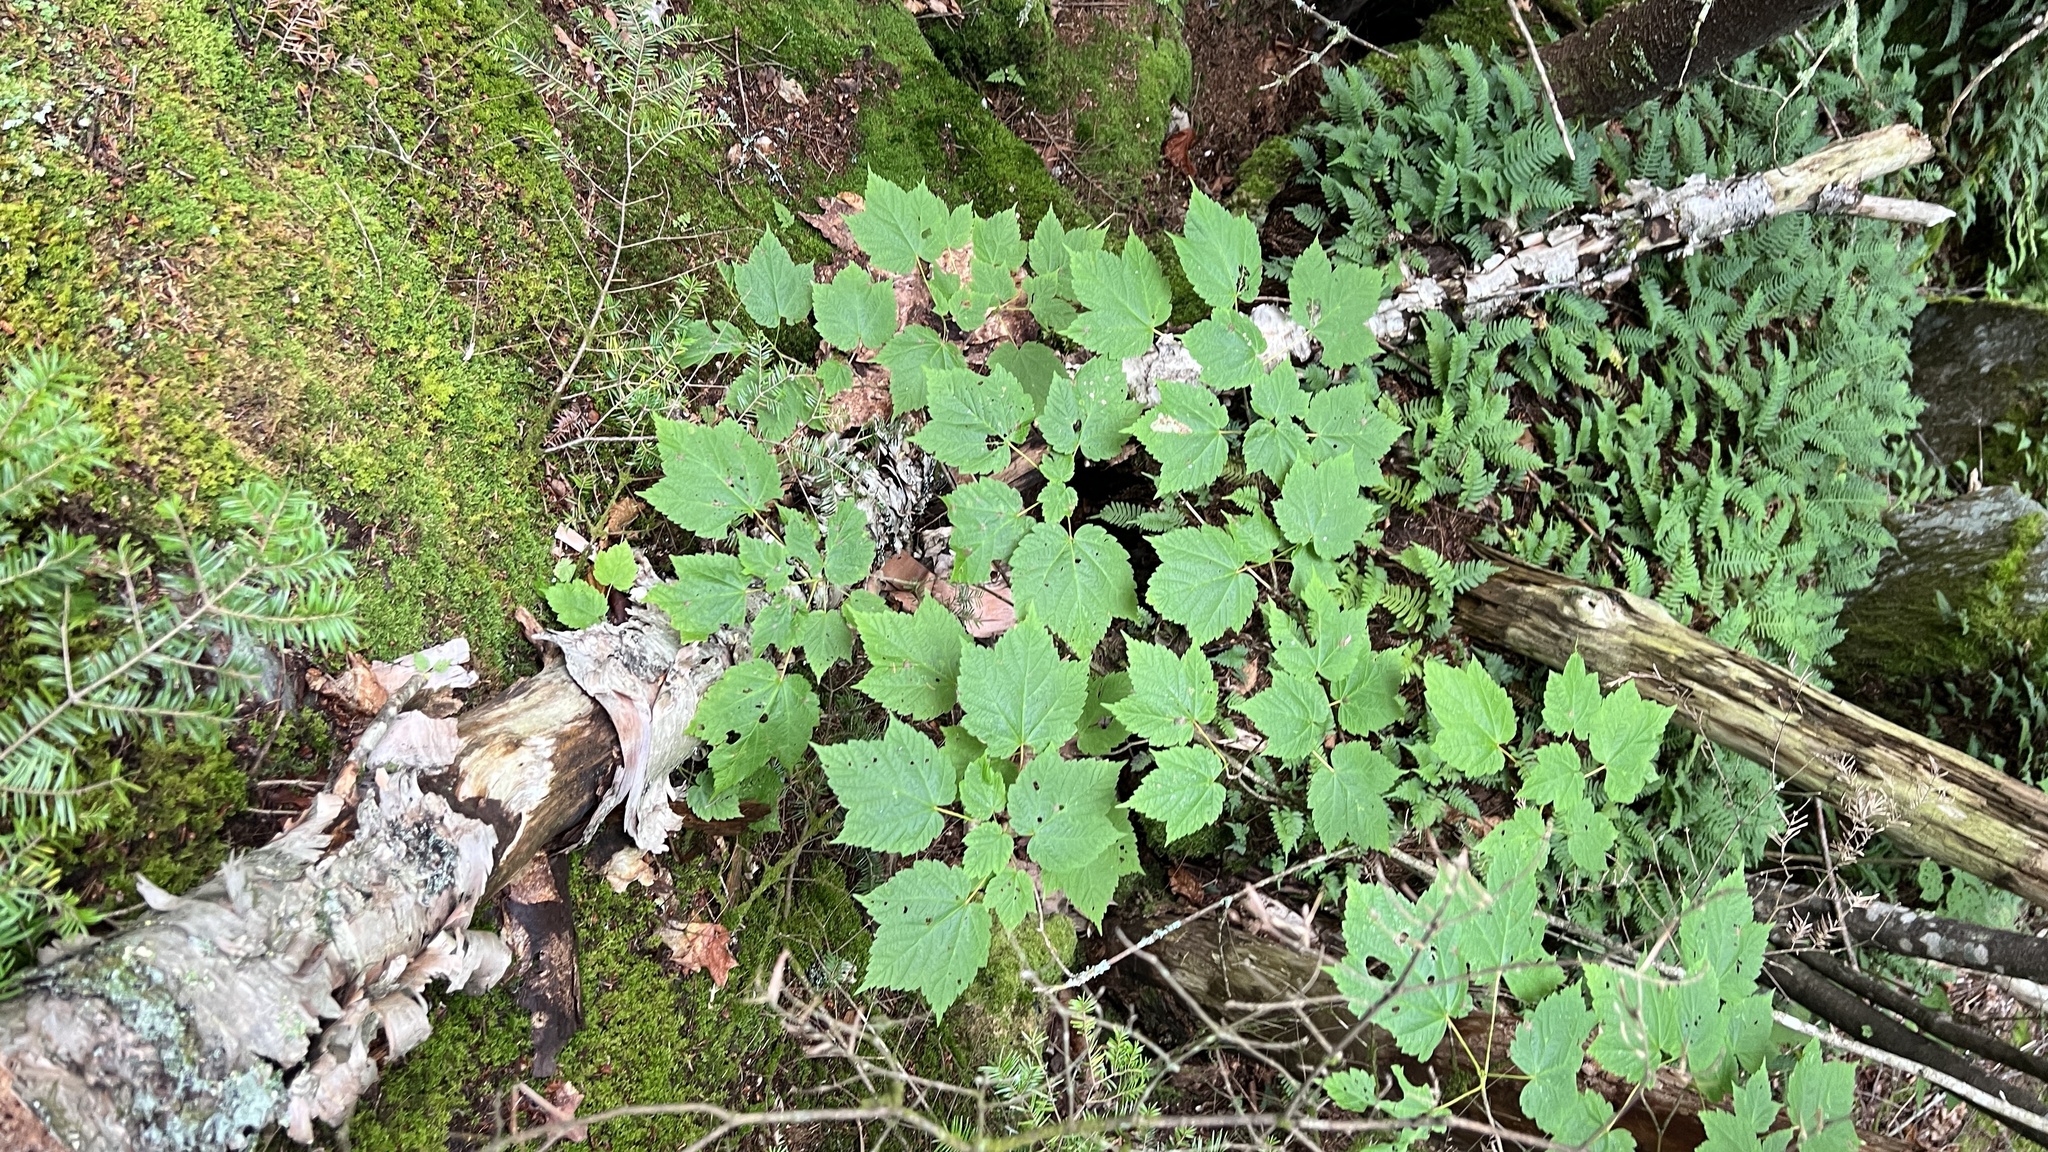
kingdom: Plantae
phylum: Tracheophyta
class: Magnoliopsida
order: Sapindales
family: Sapindaceae
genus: Acer
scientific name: Acer spicatum
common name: Mountain maple
